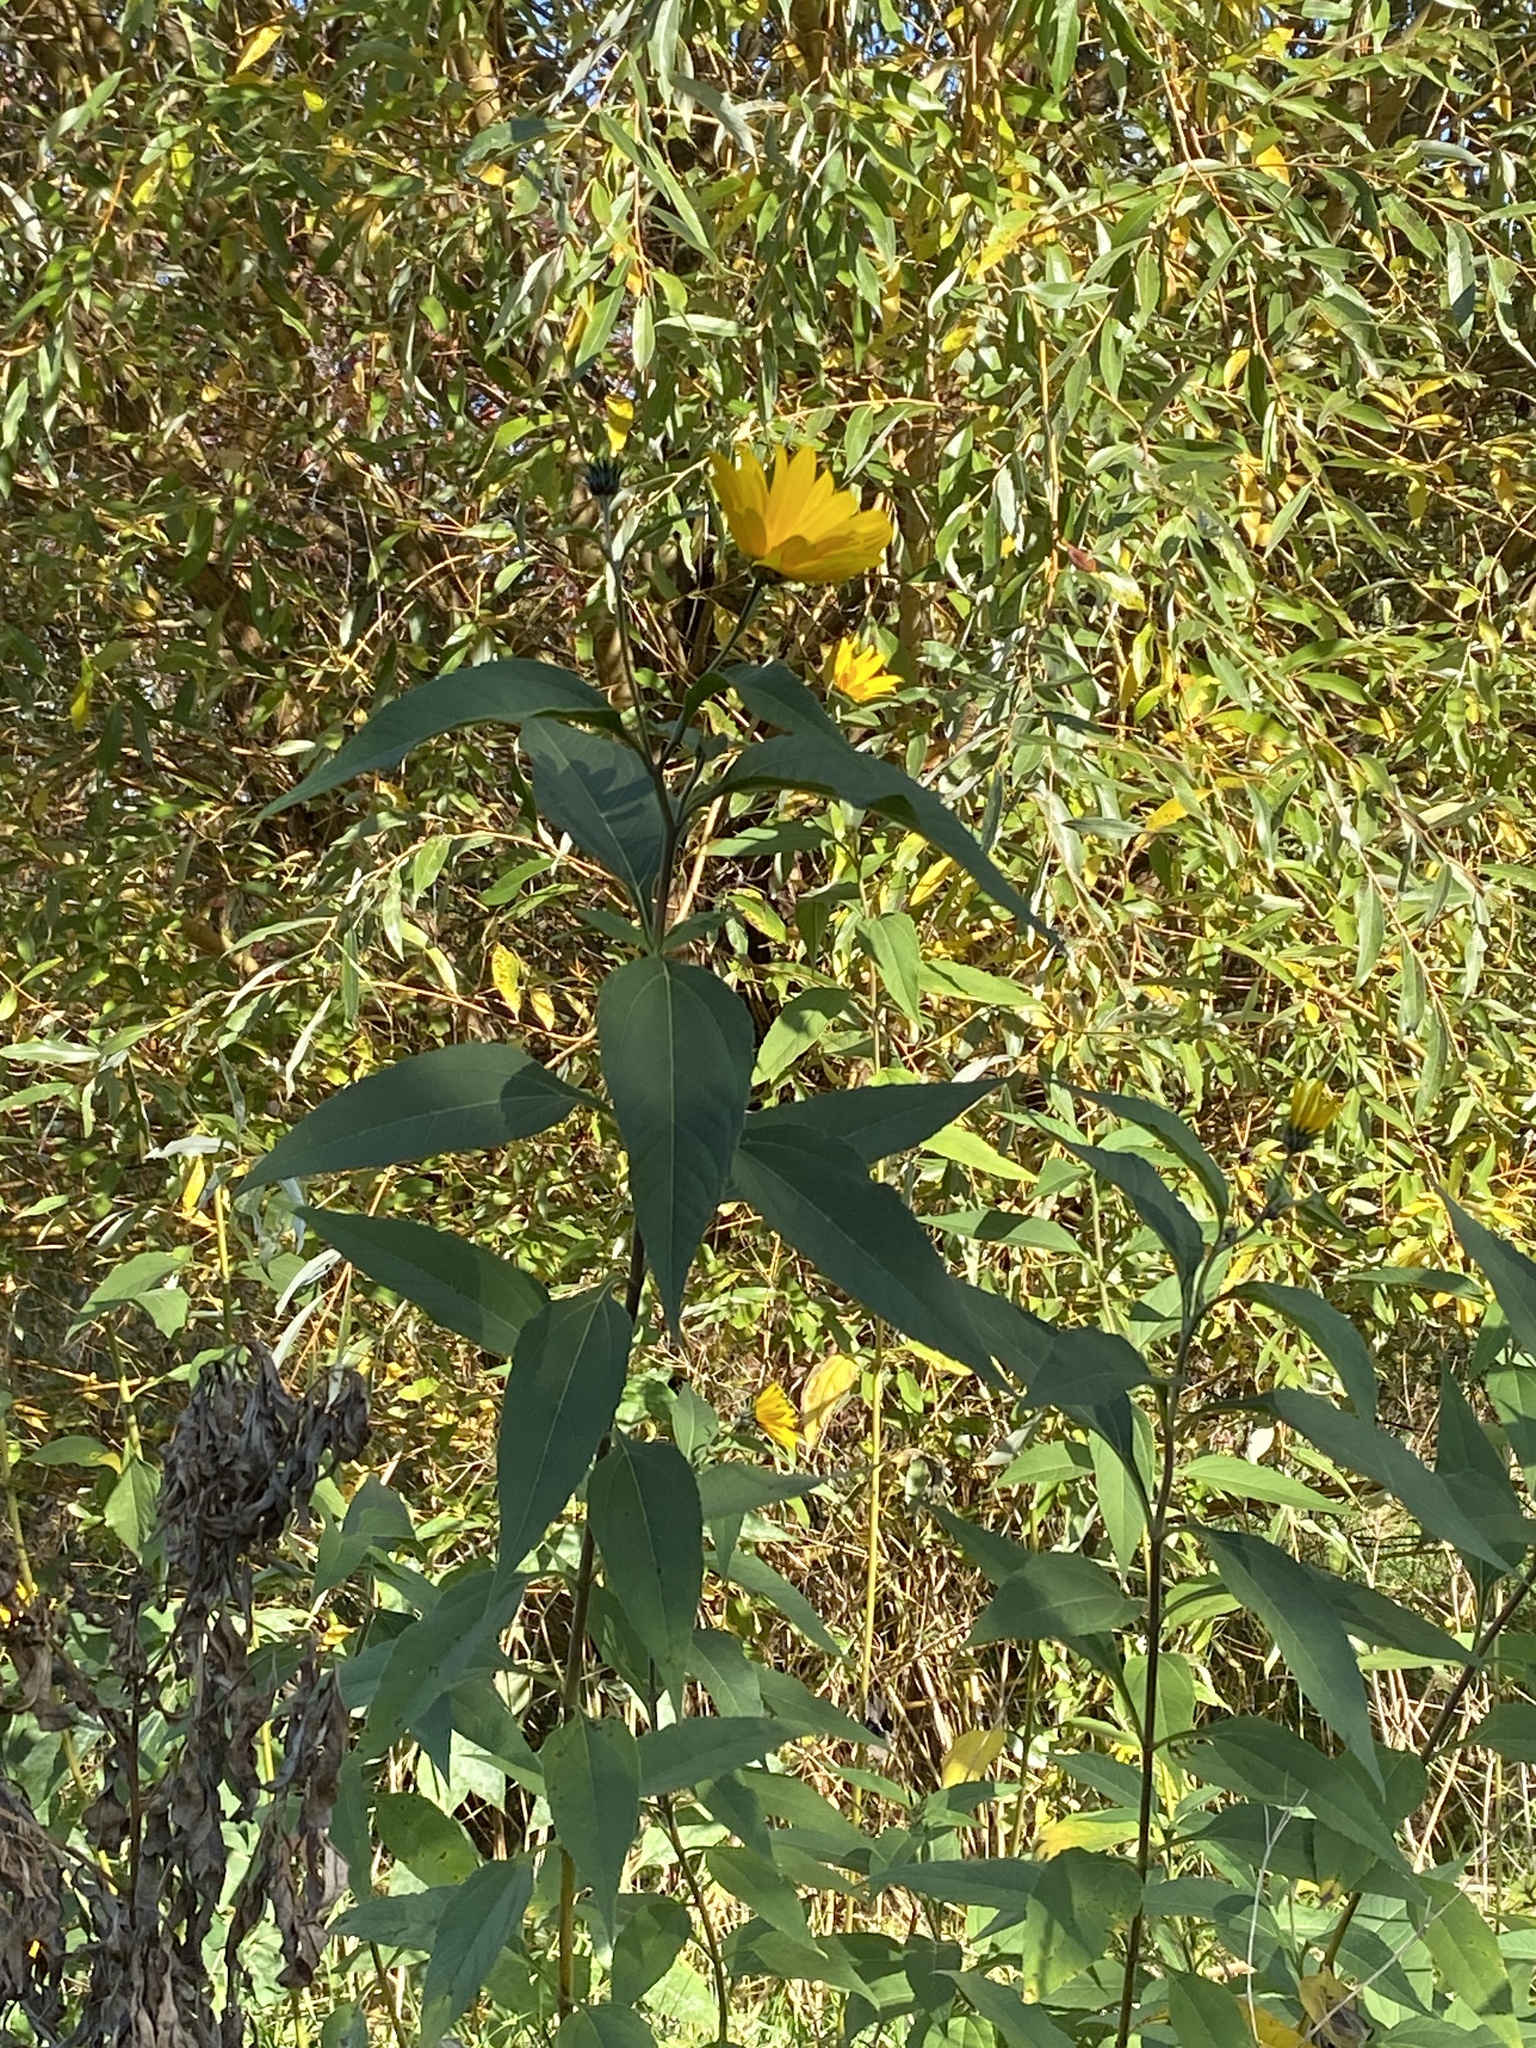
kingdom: Plantae
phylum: Tracheophyta
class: Magnoliopsida
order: Asterales
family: Asteraceae
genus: Helianthus
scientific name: Helianthus tuberosus
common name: Jerusalem artichoke
